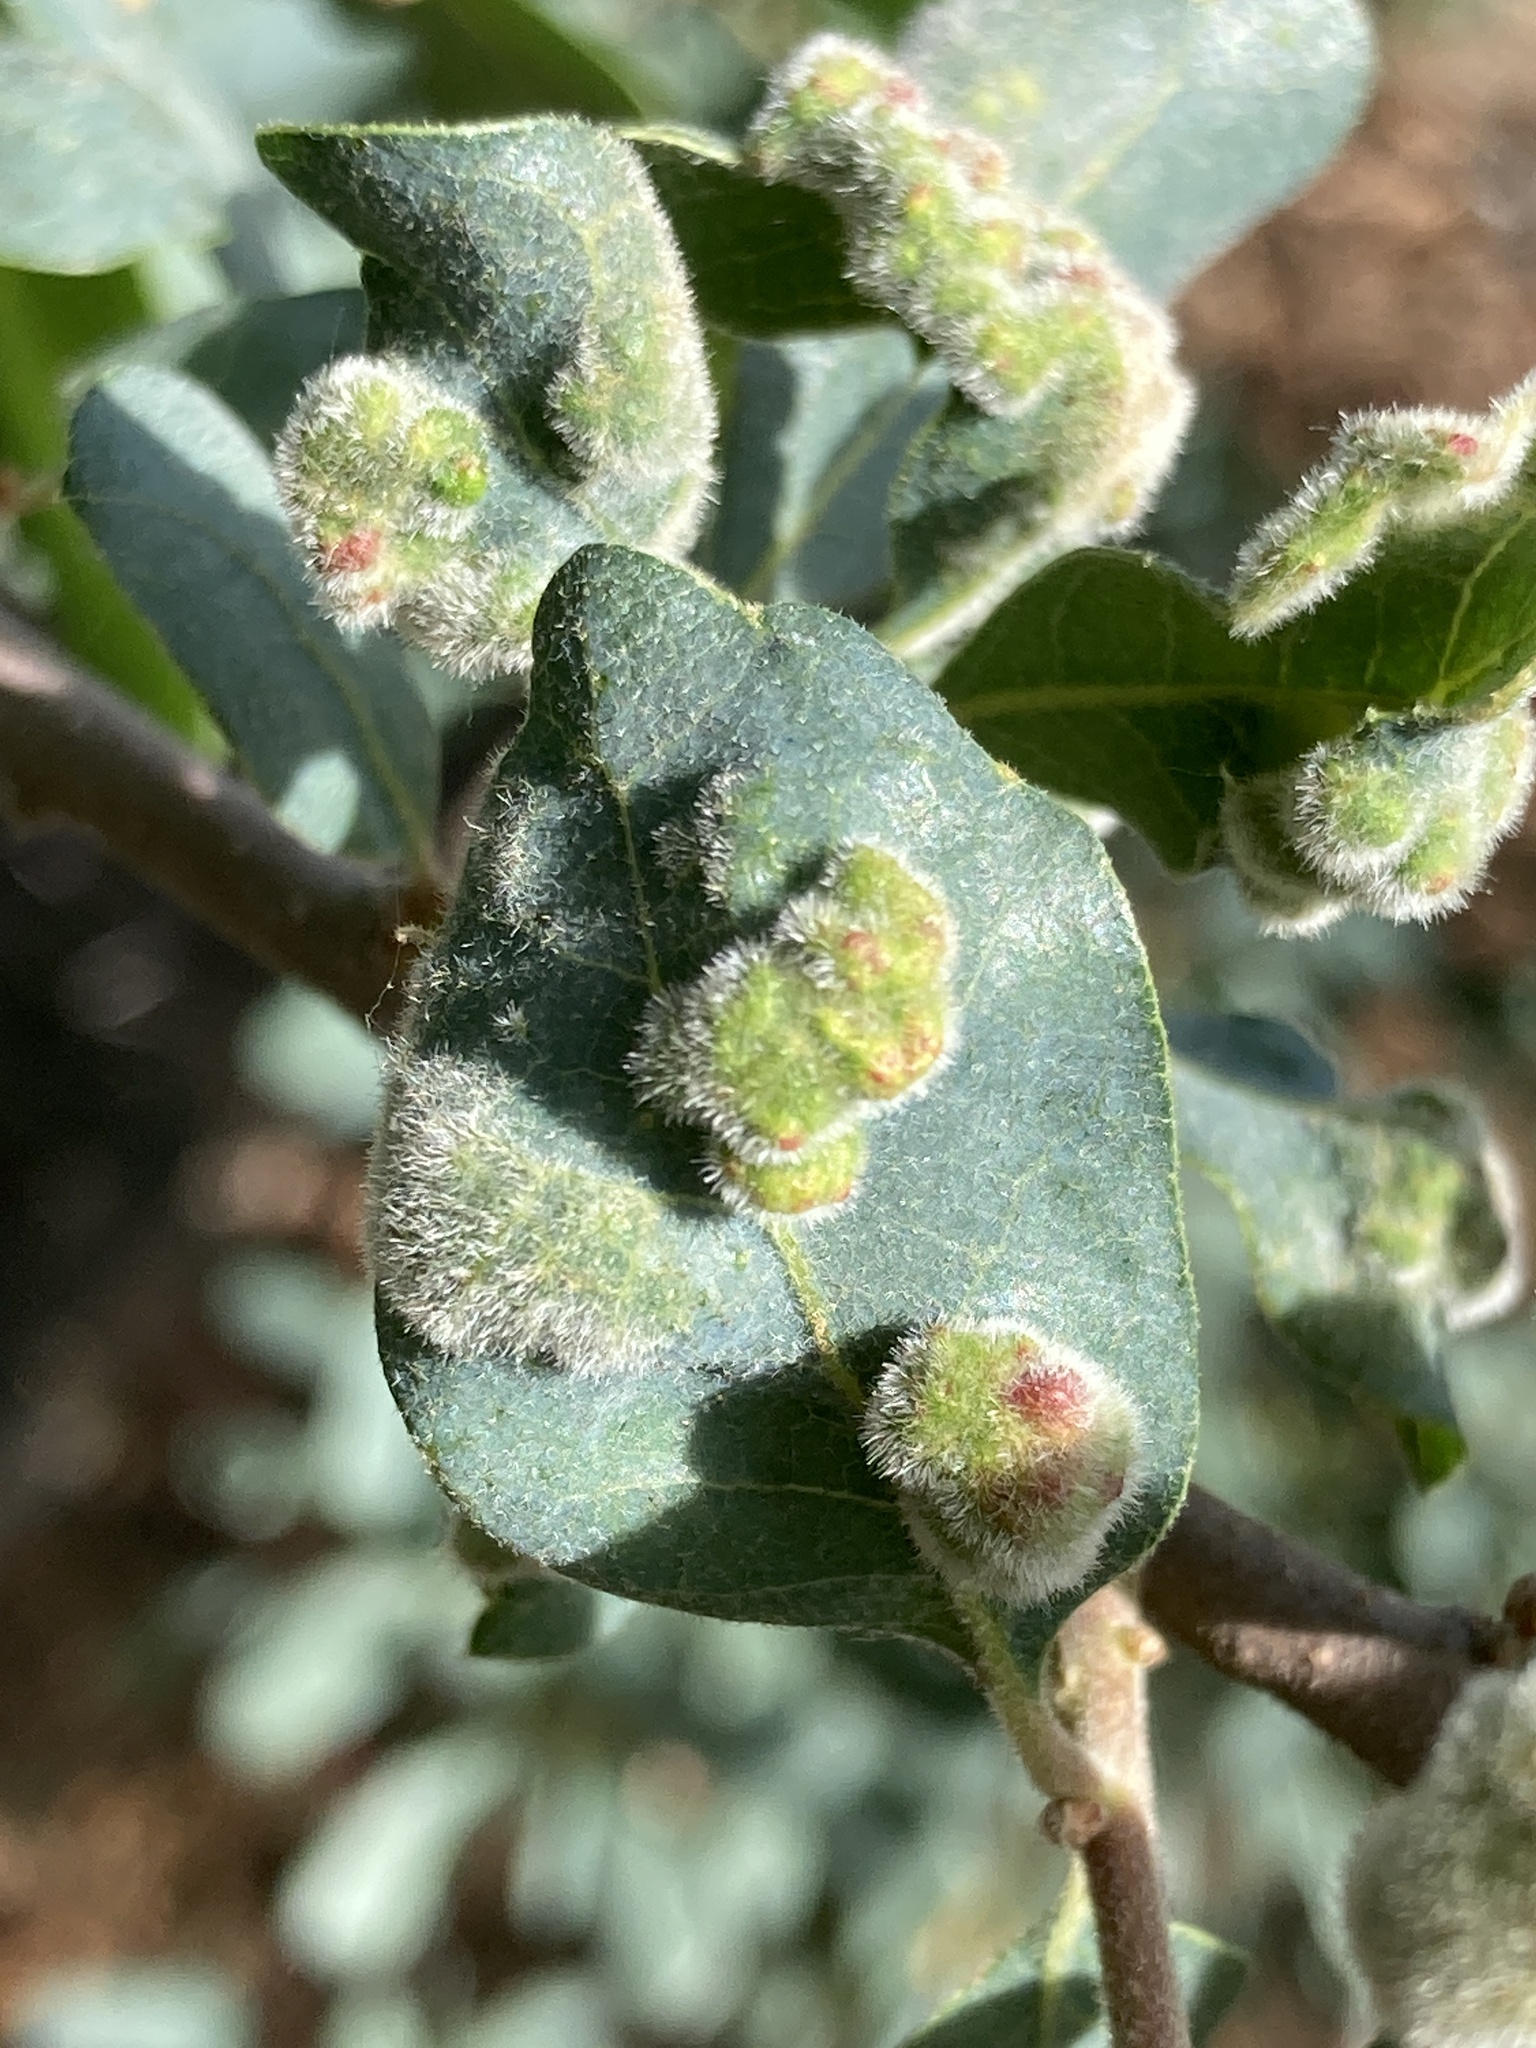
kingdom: Animalia
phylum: Arthropoda
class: Arachnida
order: Trombidiformes
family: Eriophyidae
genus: Aceria
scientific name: Aceria
